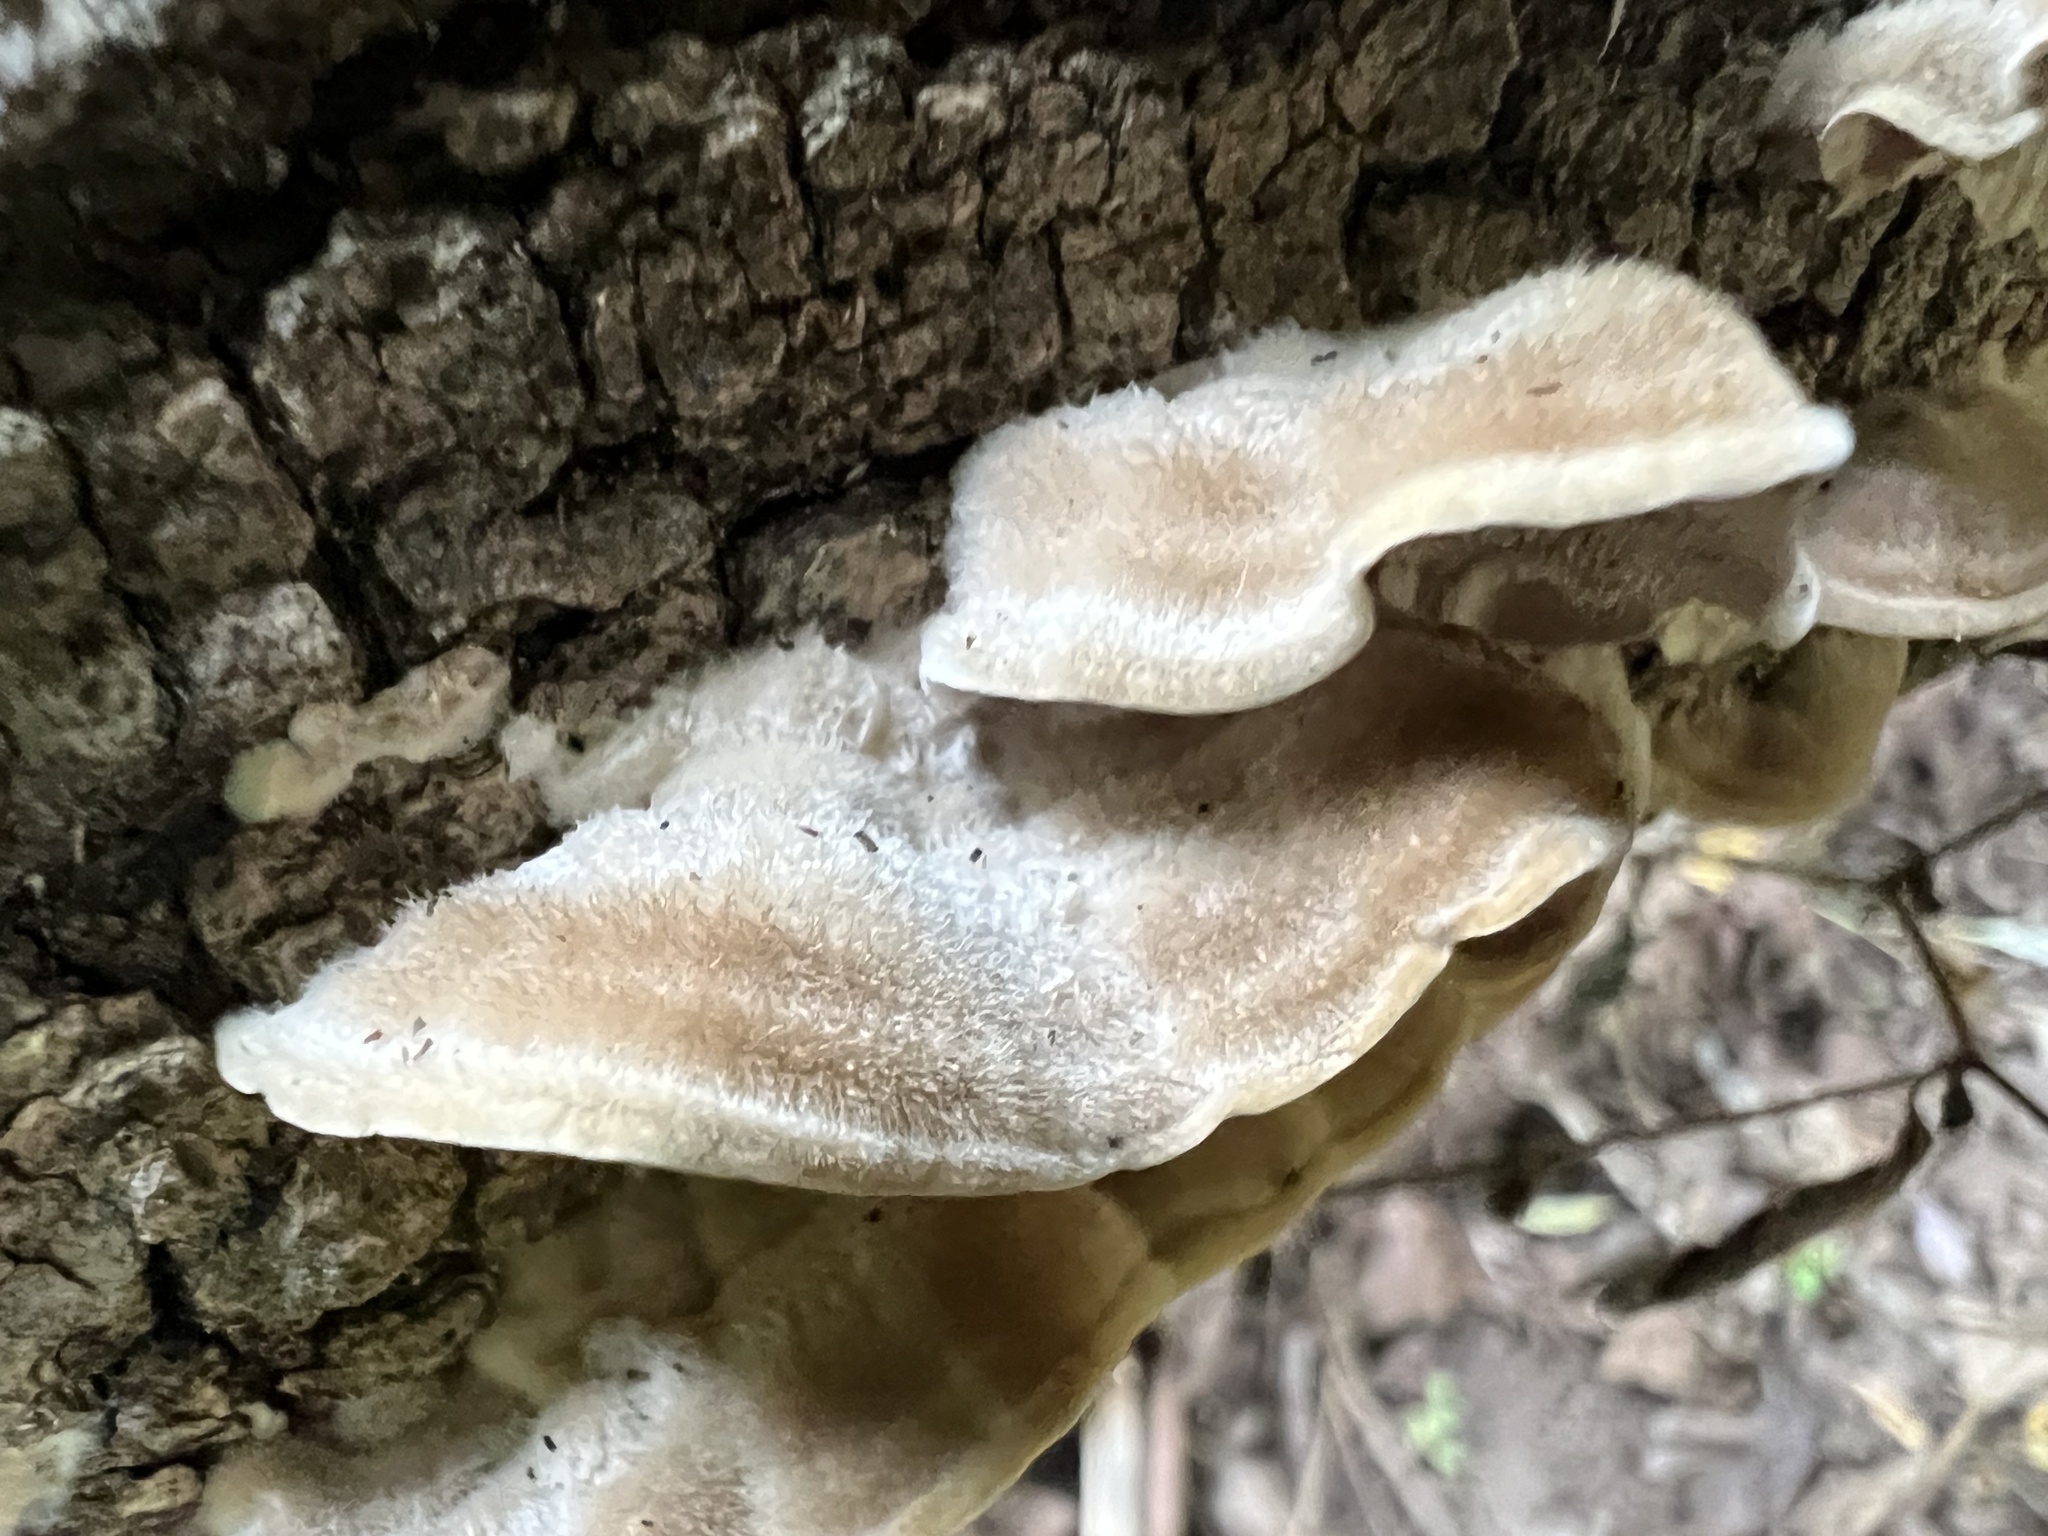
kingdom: Fungi
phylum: Basidiomycota
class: Agaricomycetes
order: Polyporales
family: Cerrenaceae
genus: Cerrena
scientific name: Cerrena unicolor
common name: Mossy maze polypore
